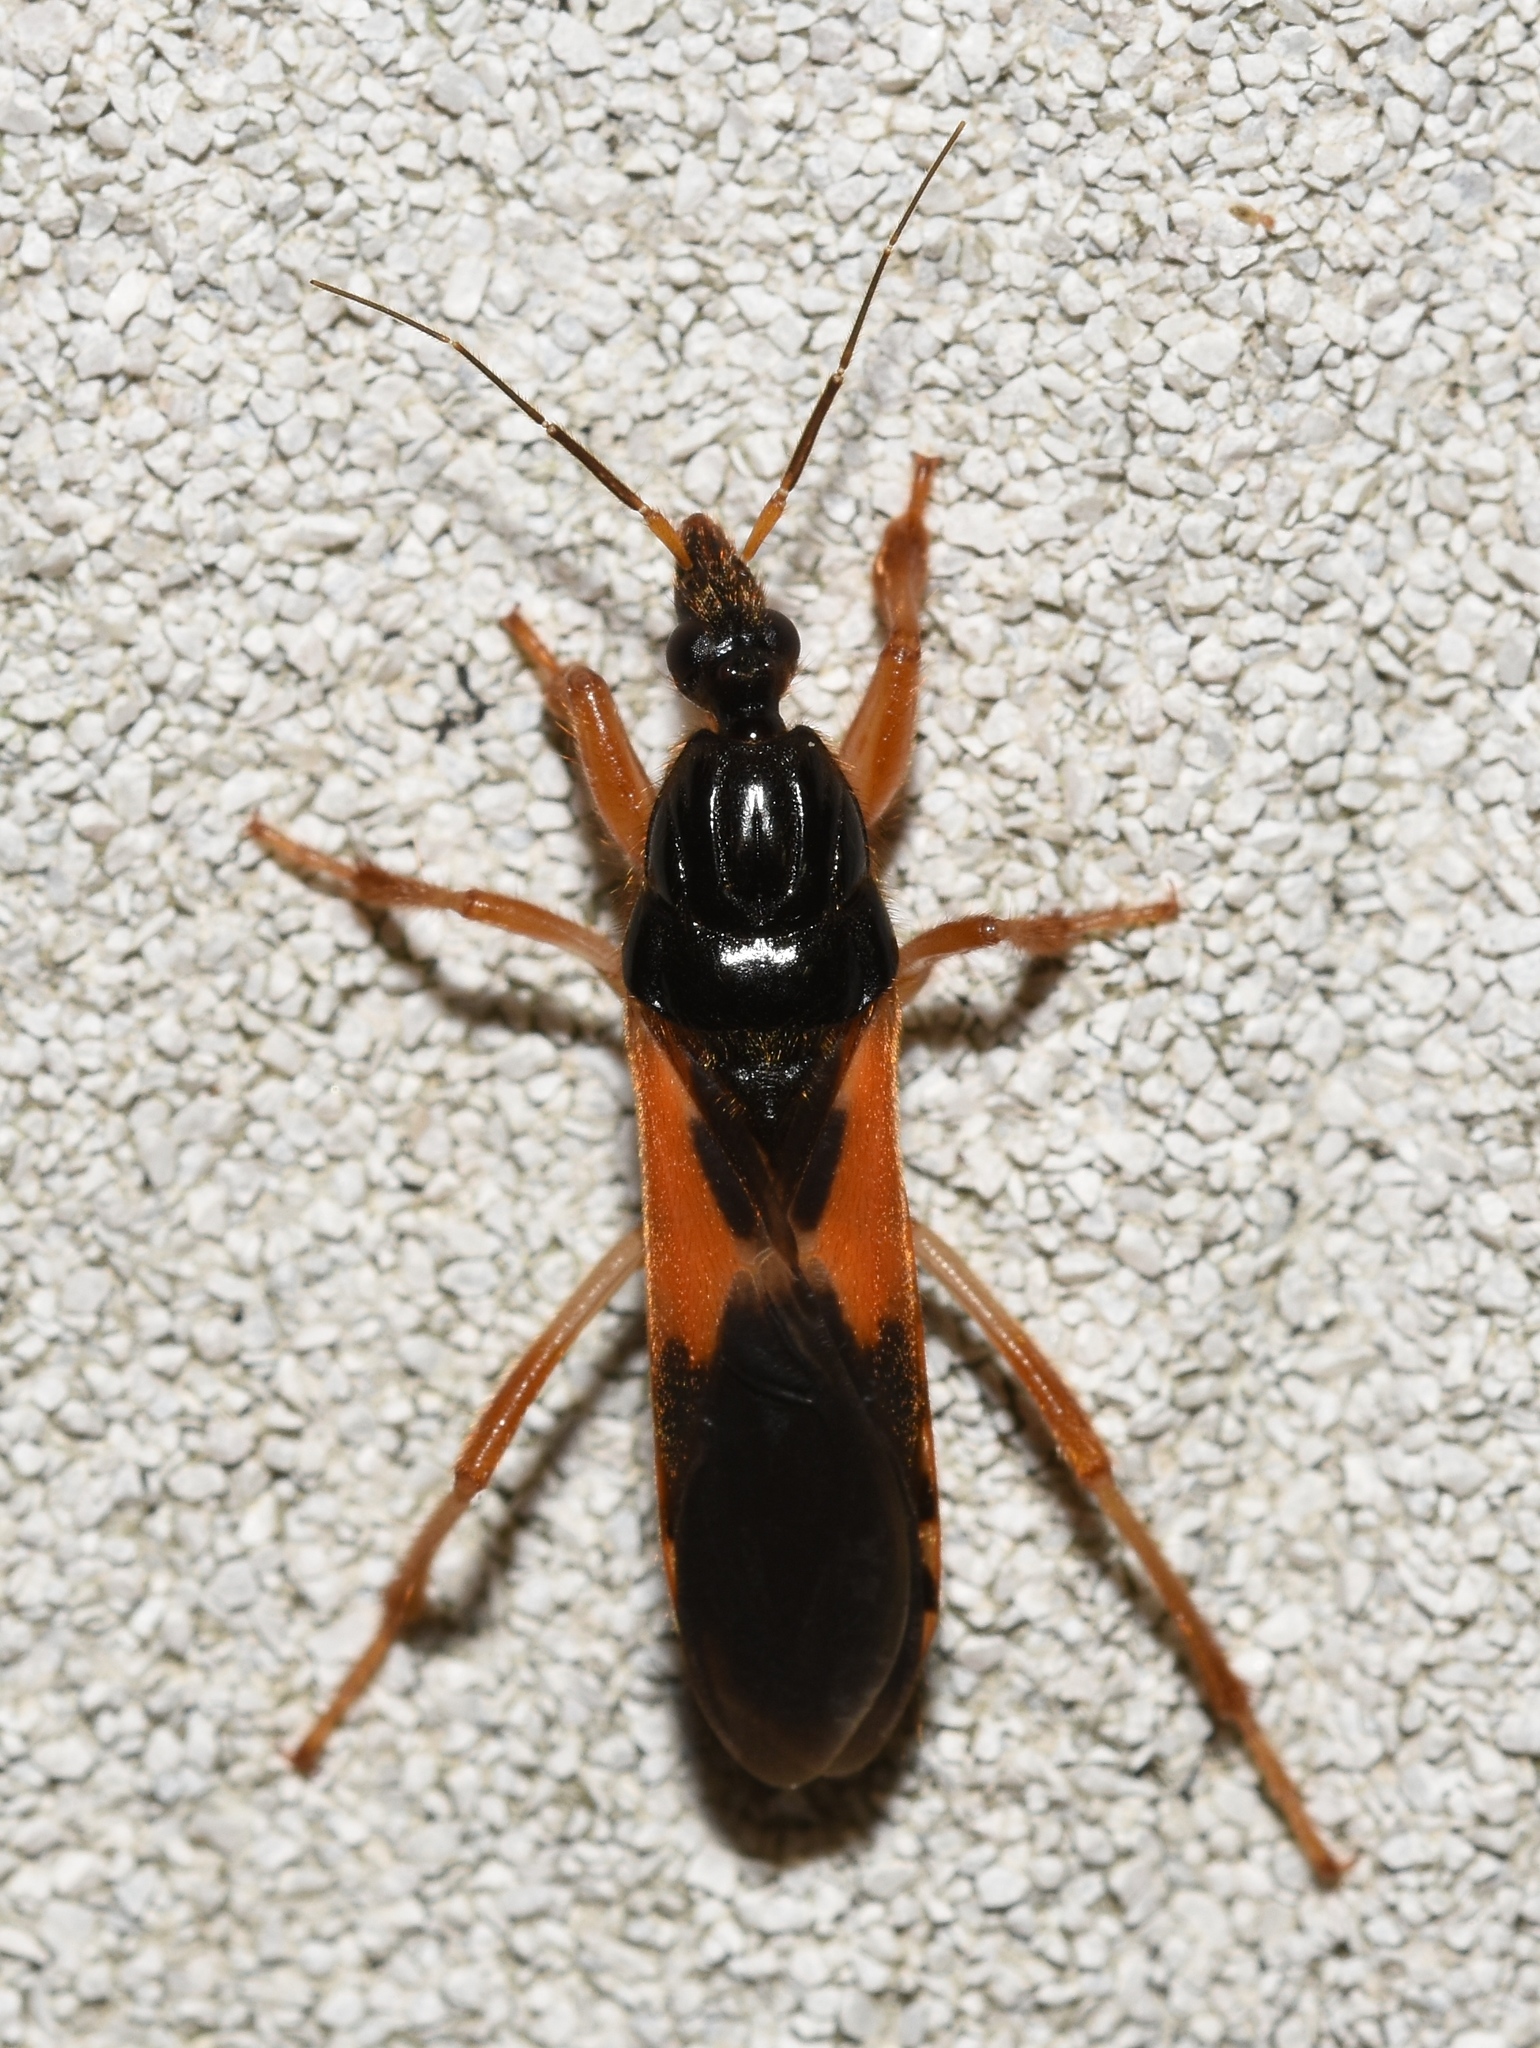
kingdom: Animalia
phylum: Arthropoda
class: Insecta
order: Hemiptera
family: Reduviidae
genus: Sirthenea
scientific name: Sirthenea stria
